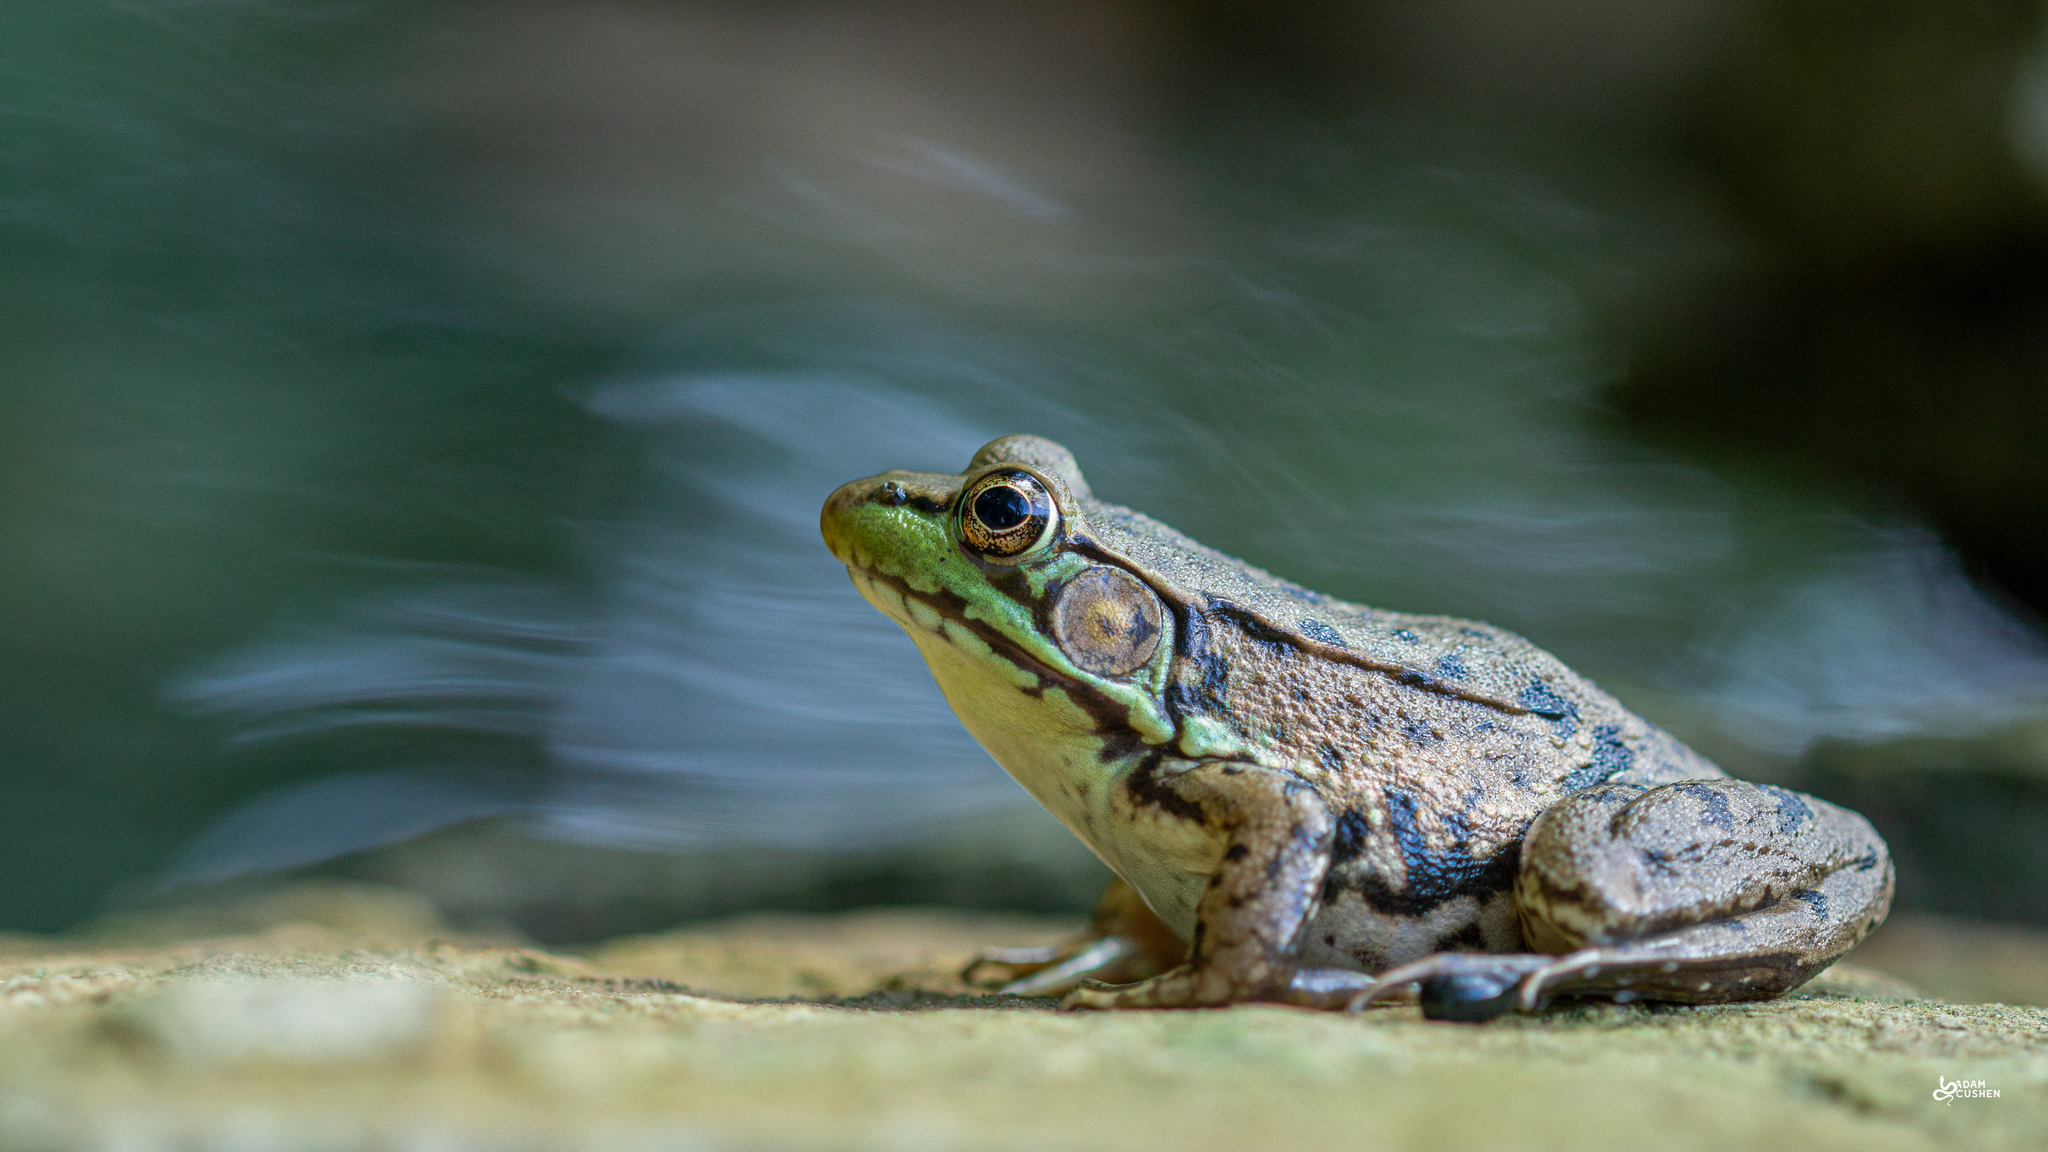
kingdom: Animalia
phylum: Chordata
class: Amphibia
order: Anura
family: Ranidae
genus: Lithobates
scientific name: Lithobates clamitans
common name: Green frog
